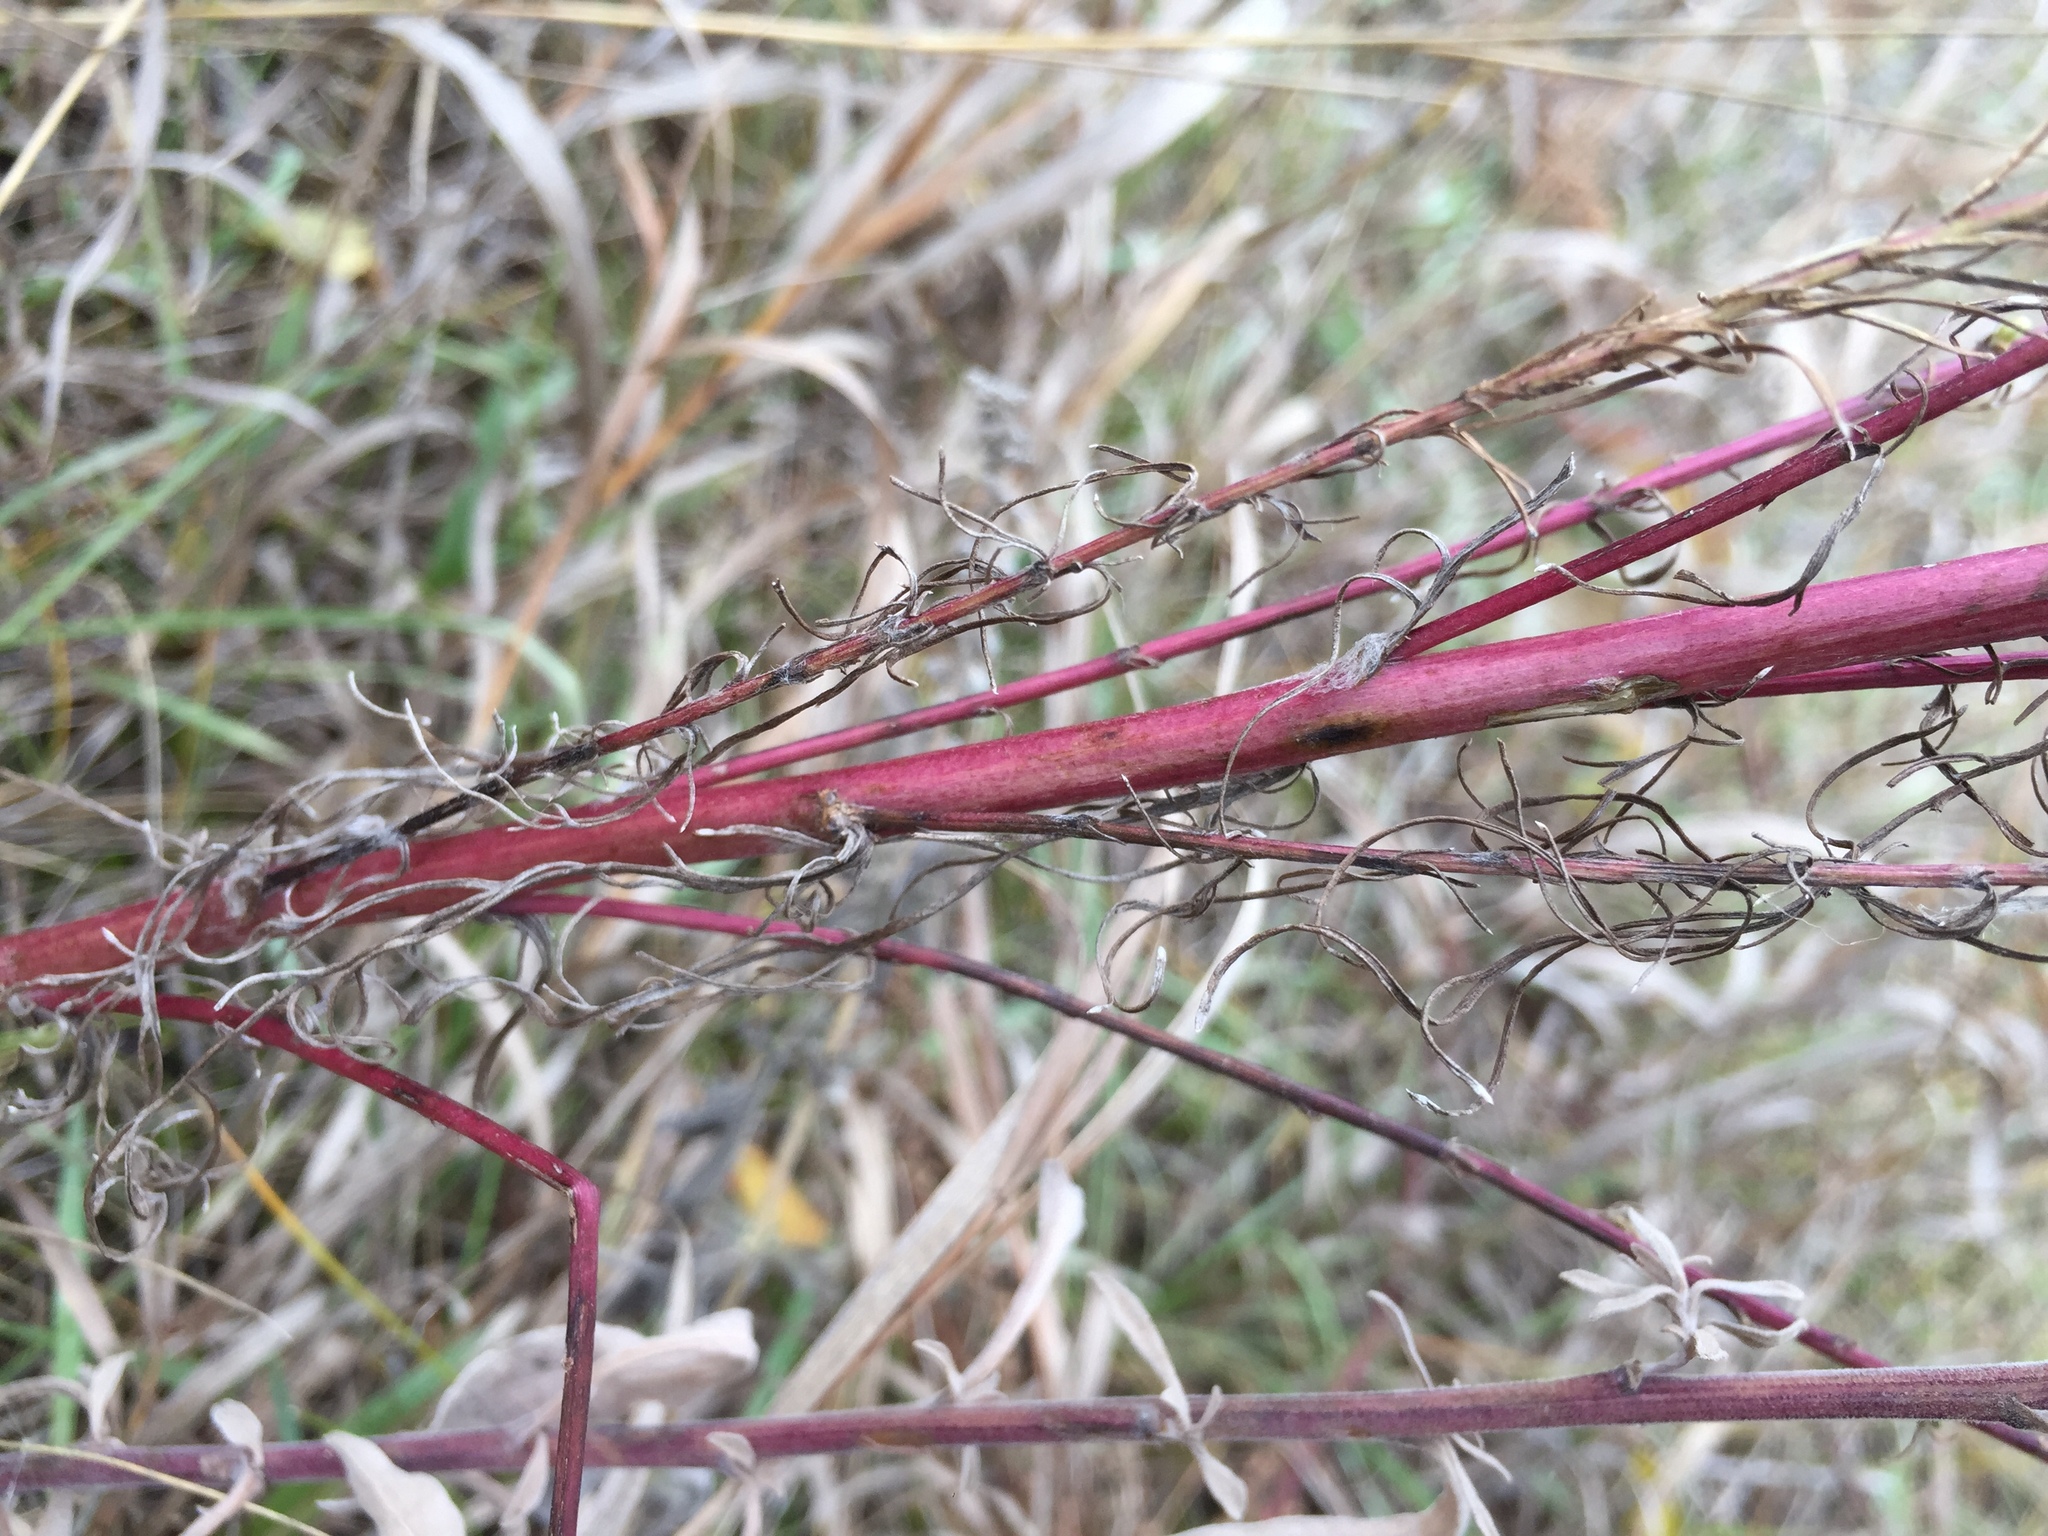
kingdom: Plantae
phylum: Tracheophyta
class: Magnoliopsida
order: Asterales
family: Asteraceae
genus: Artemisia
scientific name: Artemisia campestris
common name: Field wormwood
